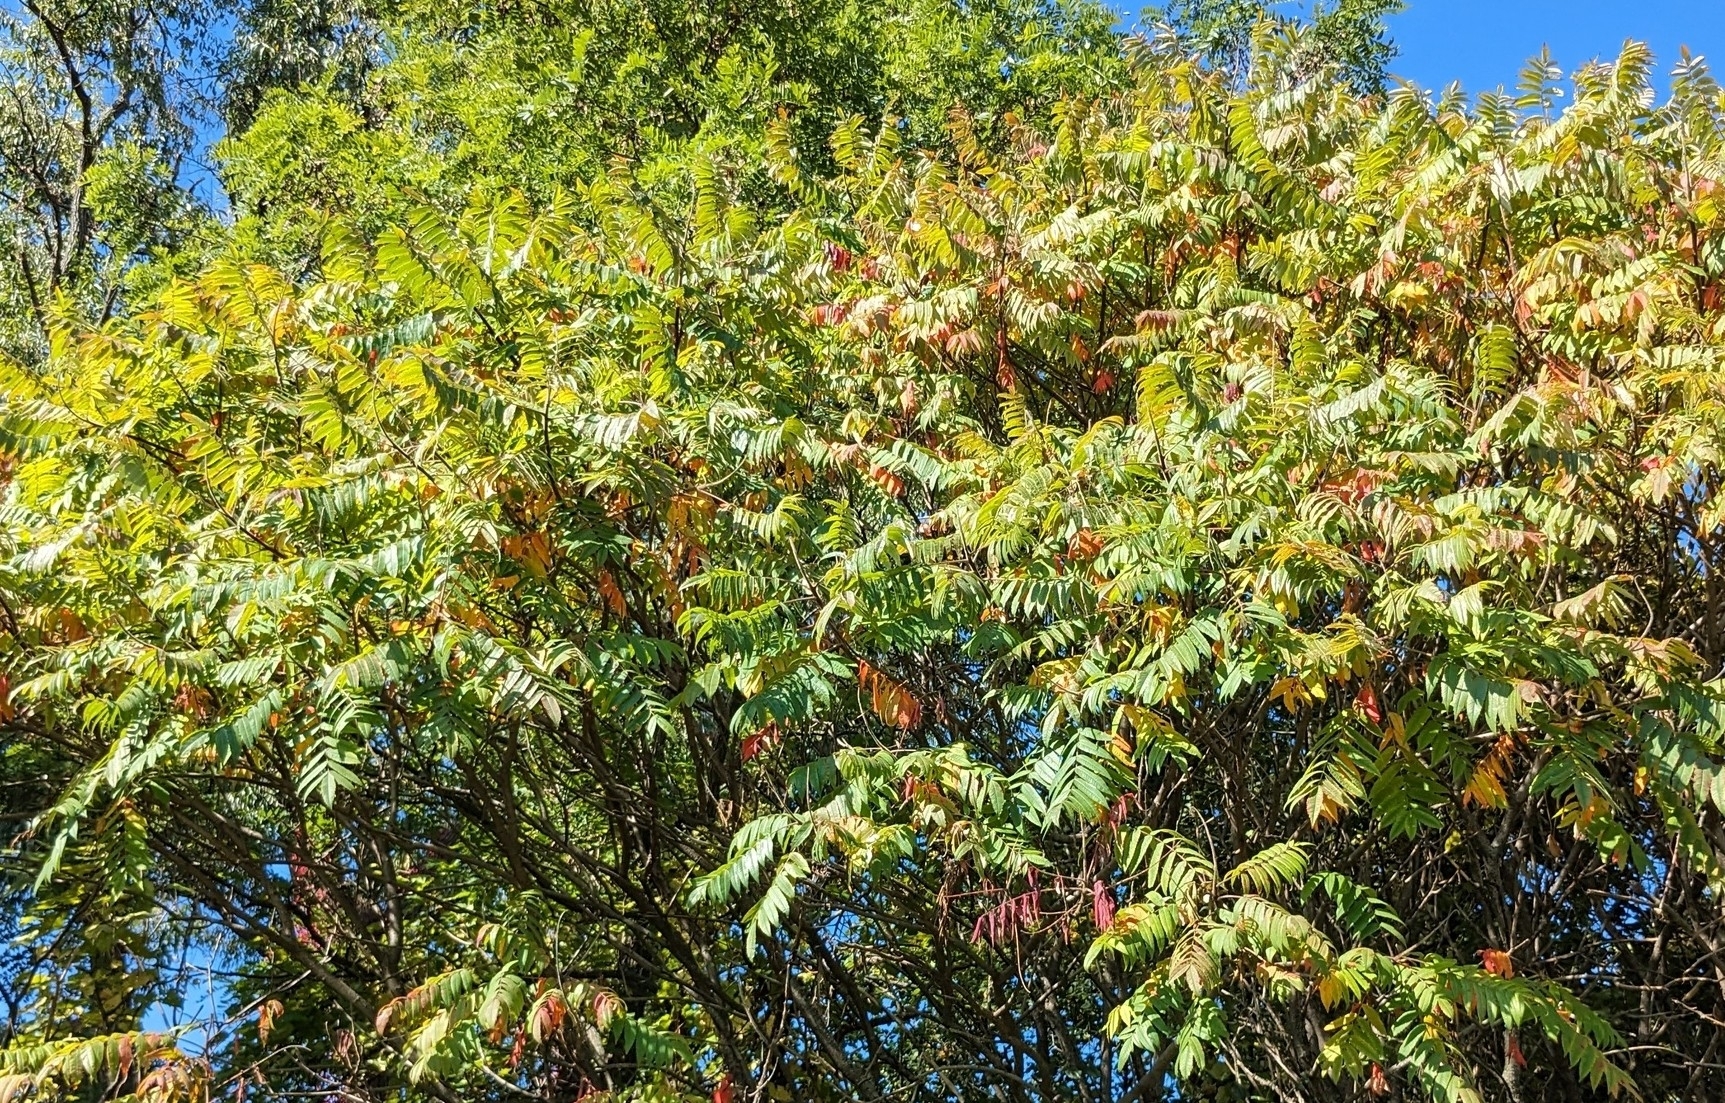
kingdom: Plantae
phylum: Tracheophyta
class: Magnoliopsida
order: Sapindales
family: Anacardiaceae
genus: Rhus
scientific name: Rhus typhina
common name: Staghorn sumac
